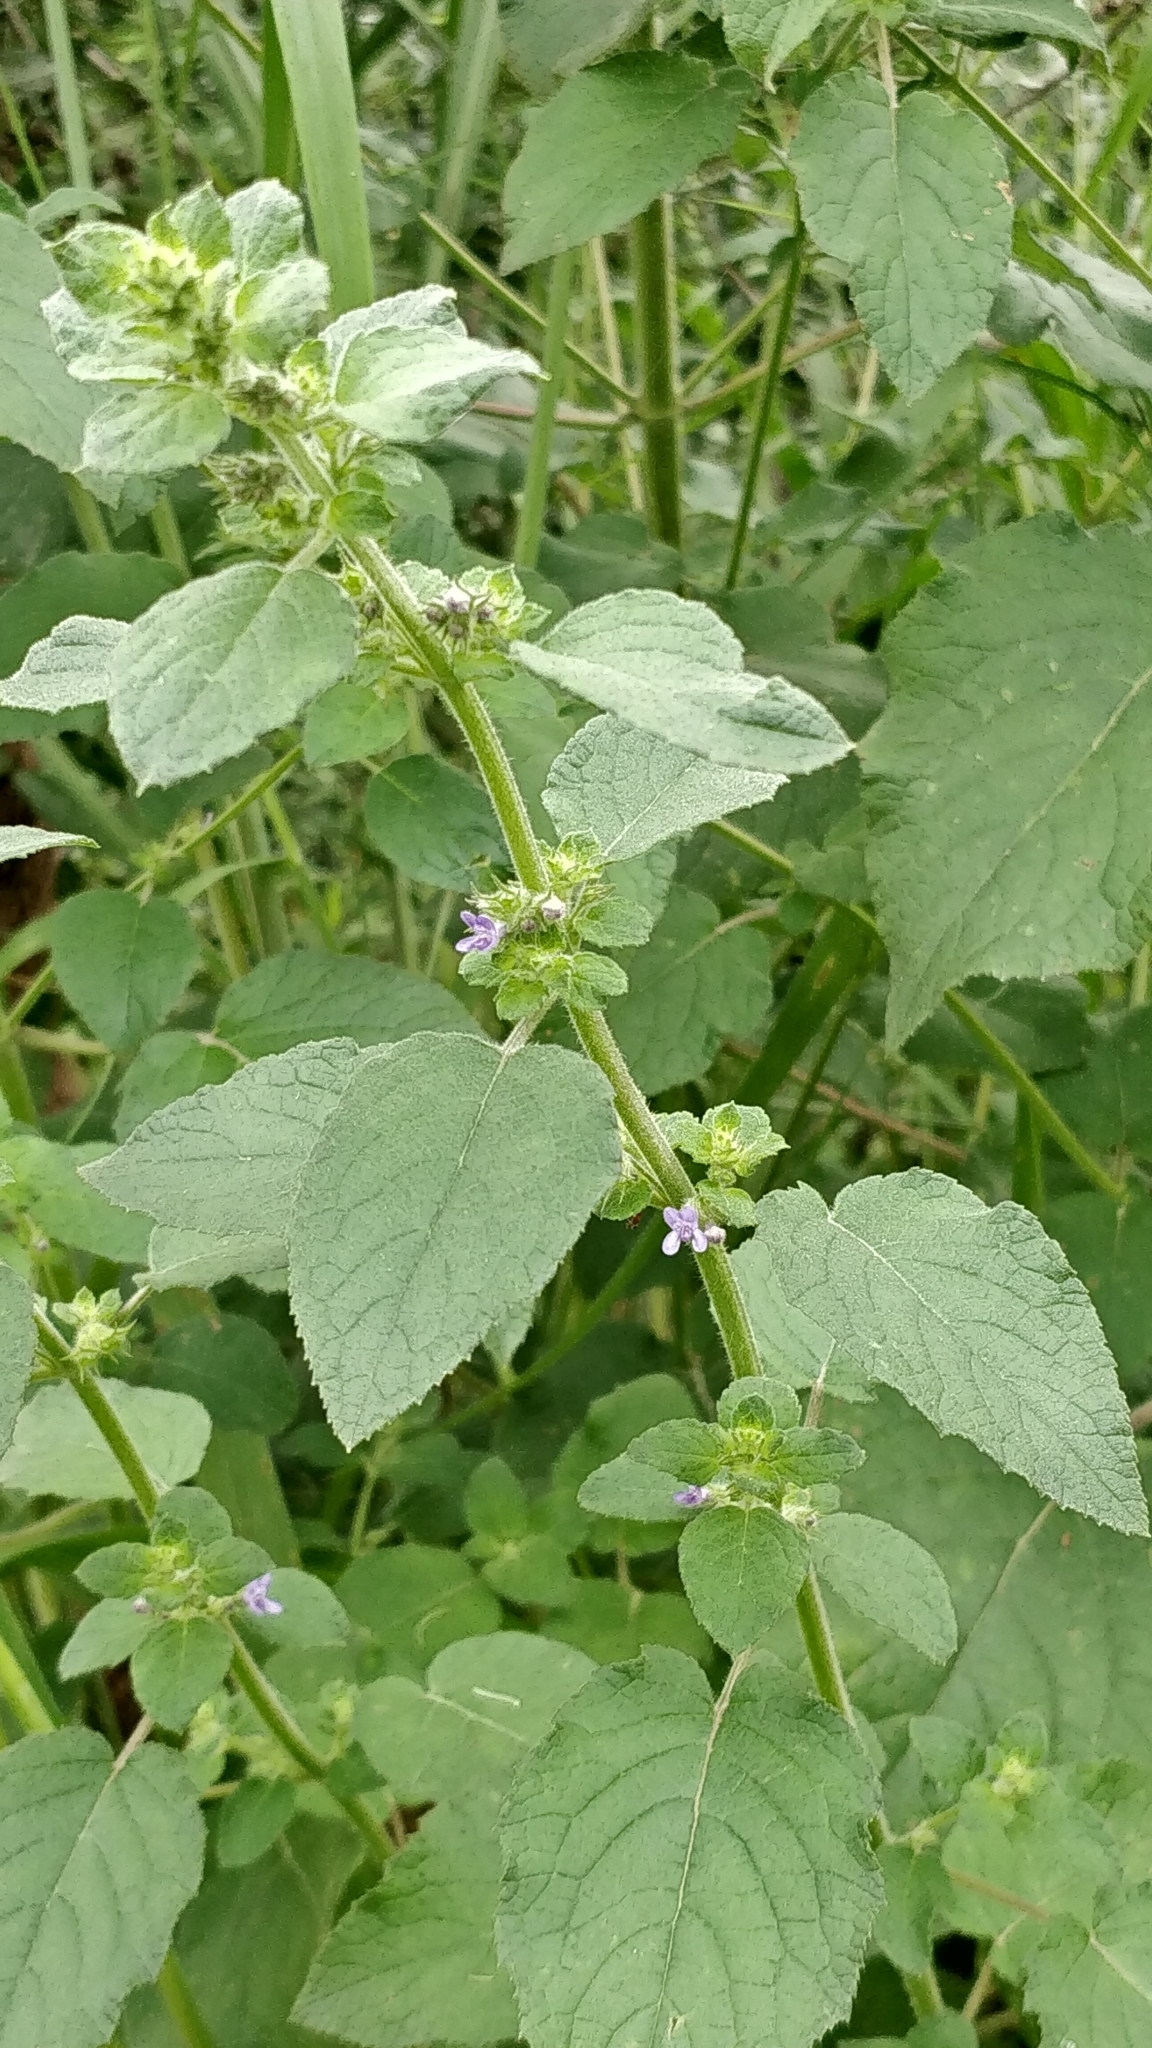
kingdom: Plantae
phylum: Tracheophyta
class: Magnoliopsida
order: Lamiales
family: Lamiaceae
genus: Mesosphaerum
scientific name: Mesosphaerum suaveolens
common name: Pignut
